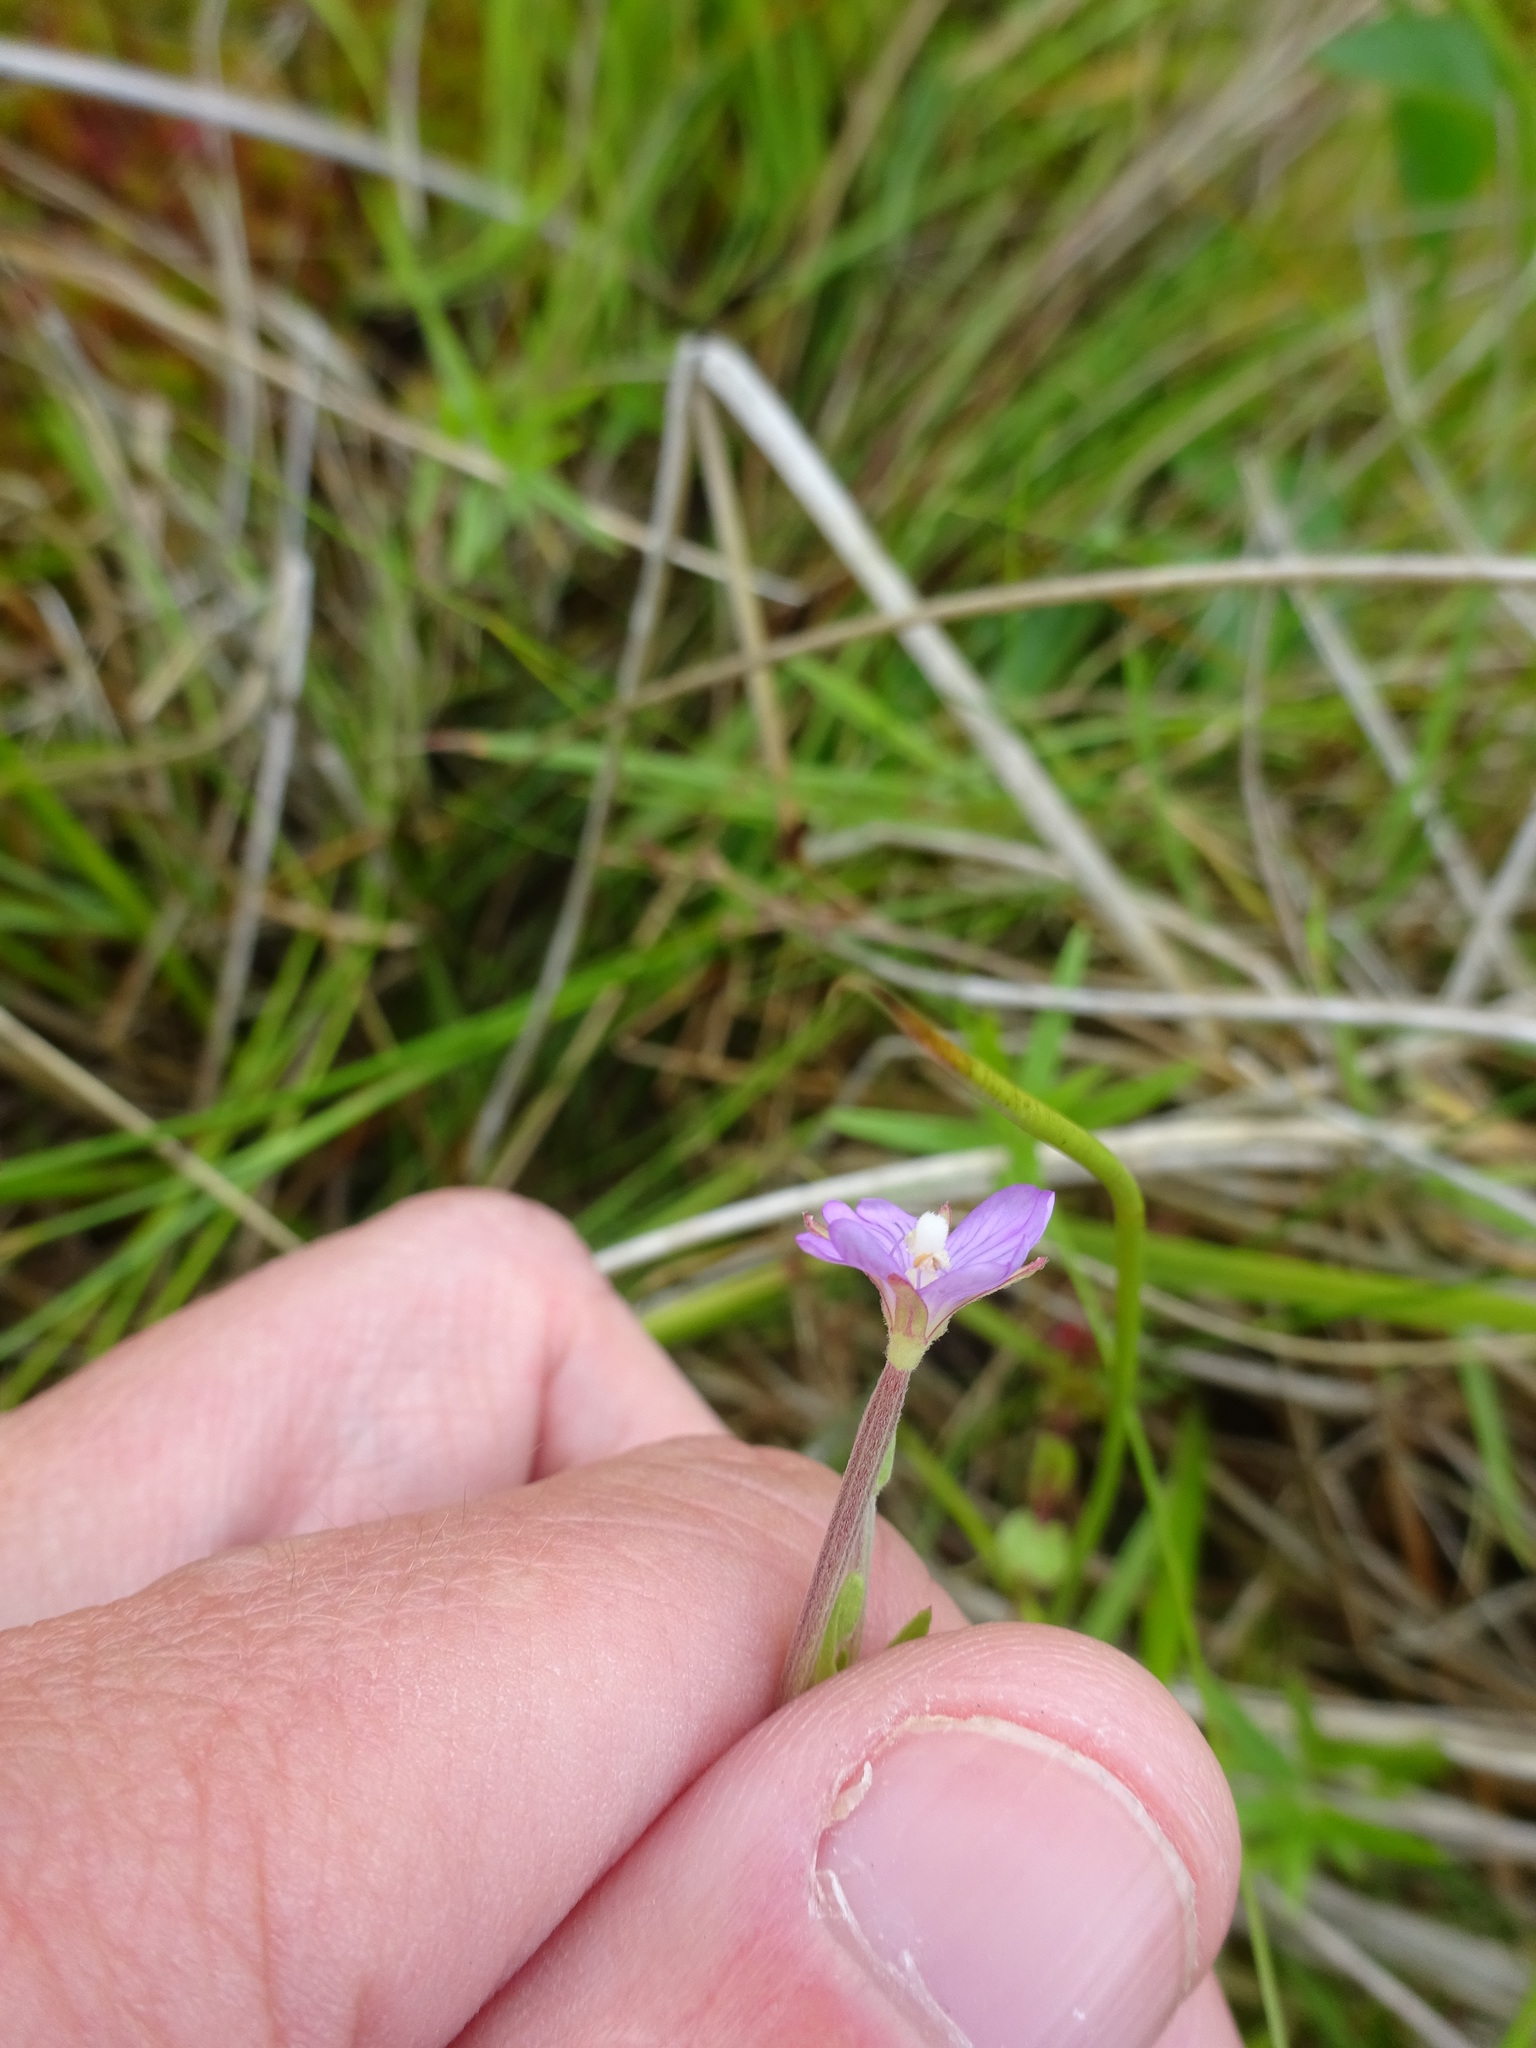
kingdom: Plantae
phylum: Tracheophyta
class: Magnoliopsida
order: Myrtales
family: Onagraceae
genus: Epilobium
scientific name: Epilobium palustre
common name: Marsh willowherb
